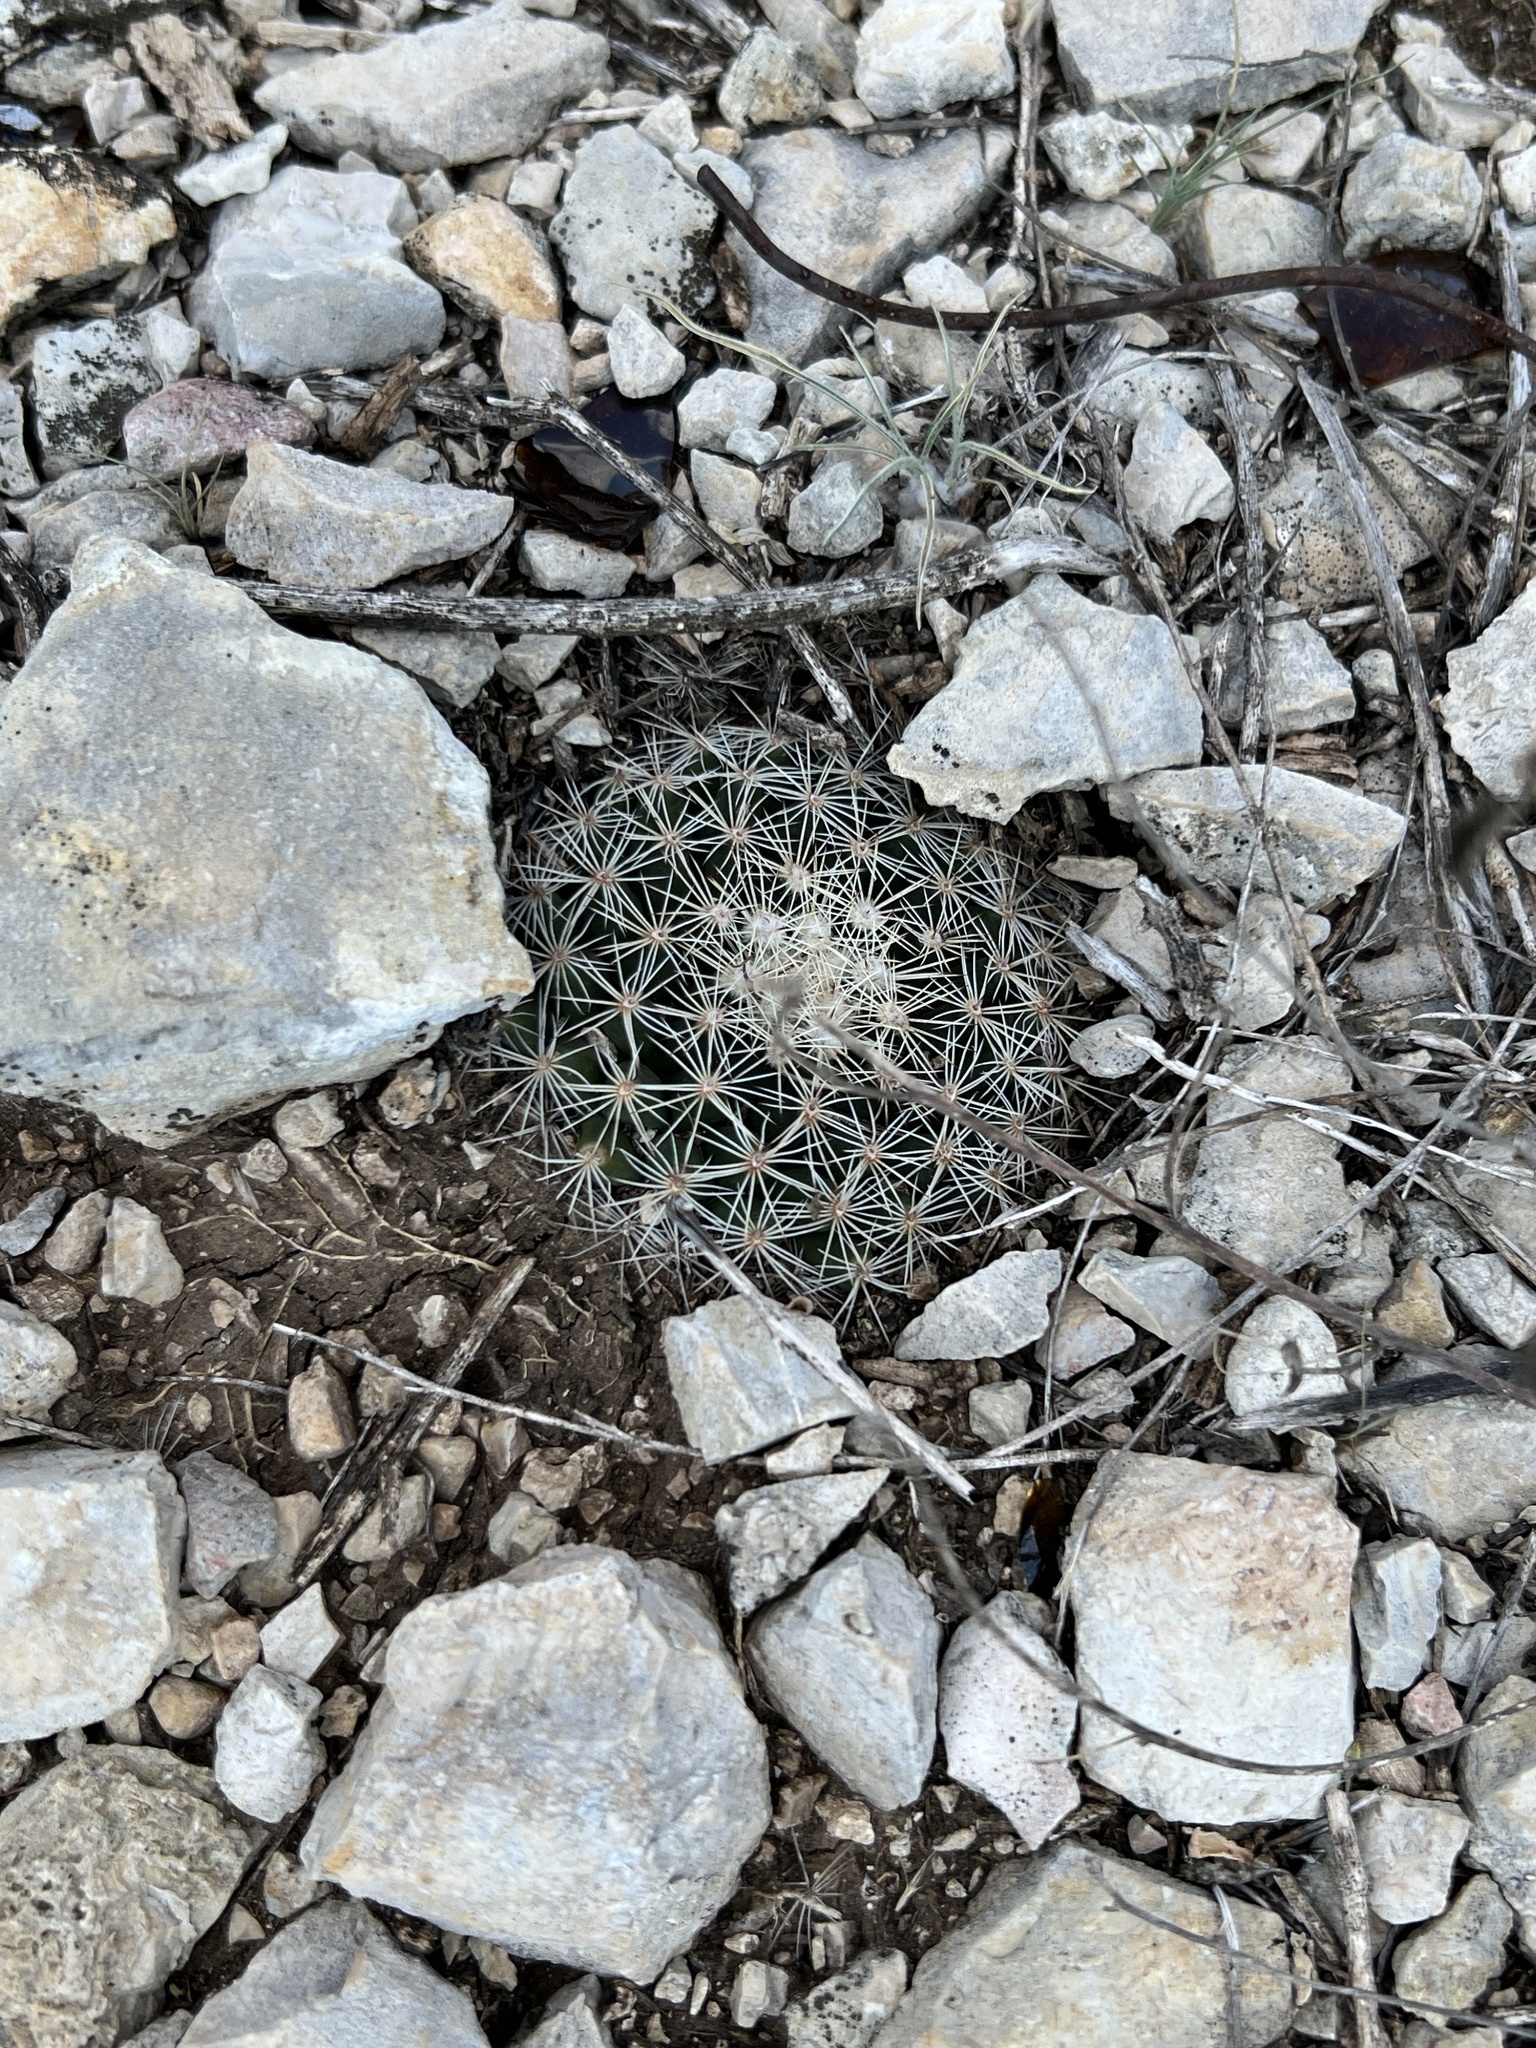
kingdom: Plantae
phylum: Tracheophyta
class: Magnoliopsida
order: Caryophyllales
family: Cactaceae
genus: Mammillaria
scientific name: Mammillaria heyderi
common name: Little nipple cactus
